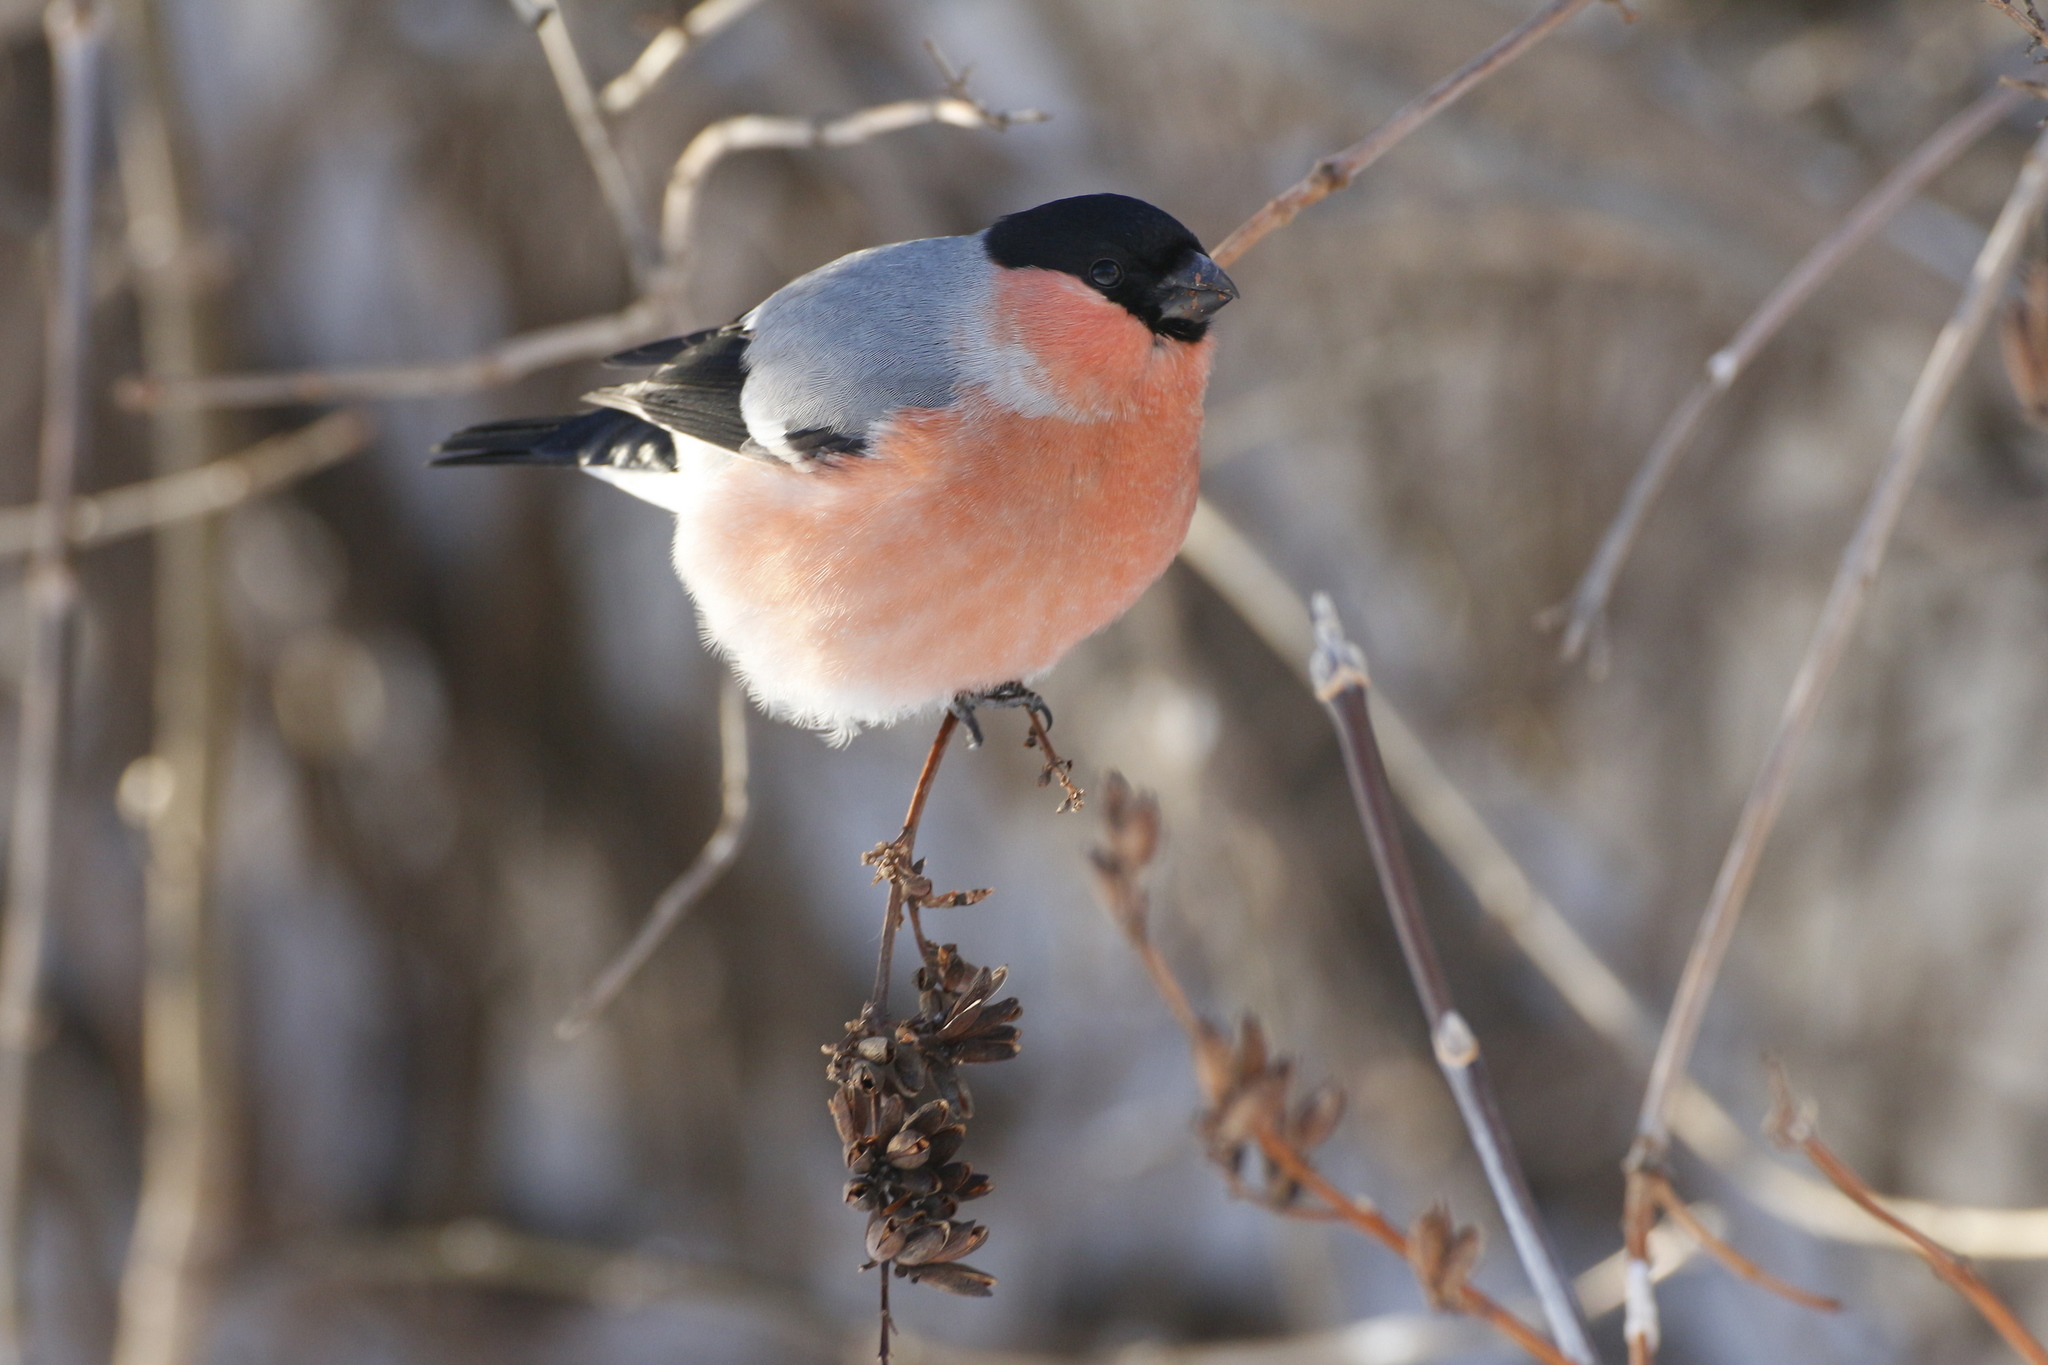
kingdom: Animalia
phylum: Chordata
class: Aves
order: Passeriformes
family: Fringillidae
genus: Pyrrhula
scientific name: Pyrrhula pyrrhula
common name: Eurasian bullfinch
